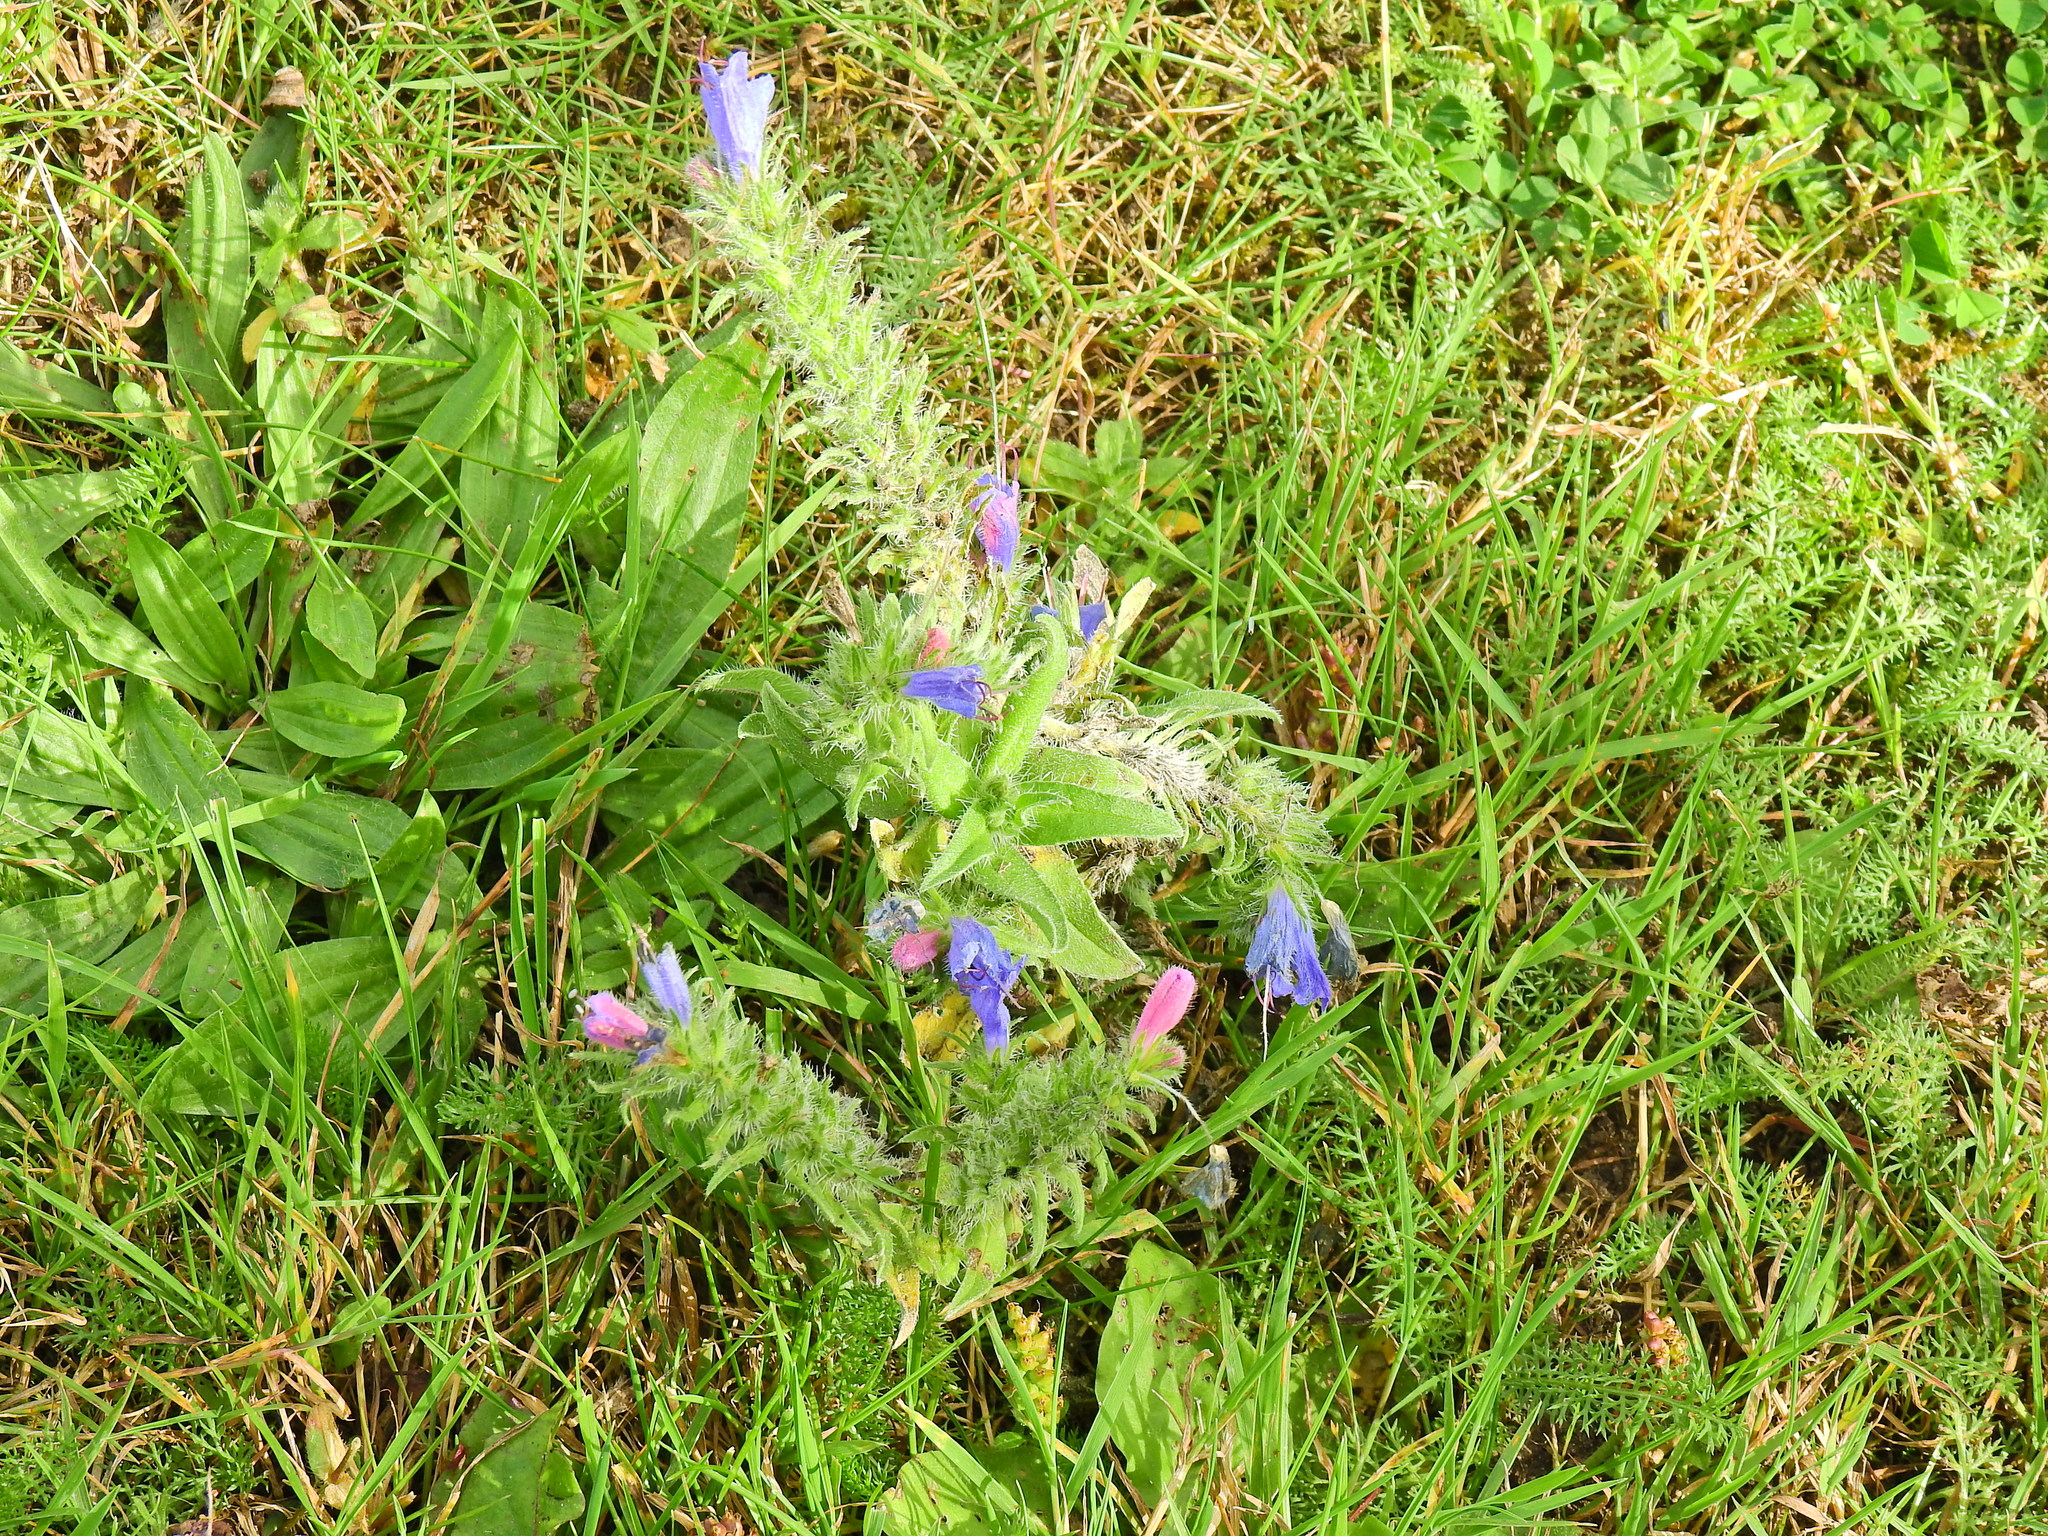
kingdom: Plantae
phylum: Tracheophyta
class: Magnoliopsida
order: Boraginales
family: Boraginaceae
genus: Echium
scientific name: Echium vulgare
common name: Common viper's bugloss
